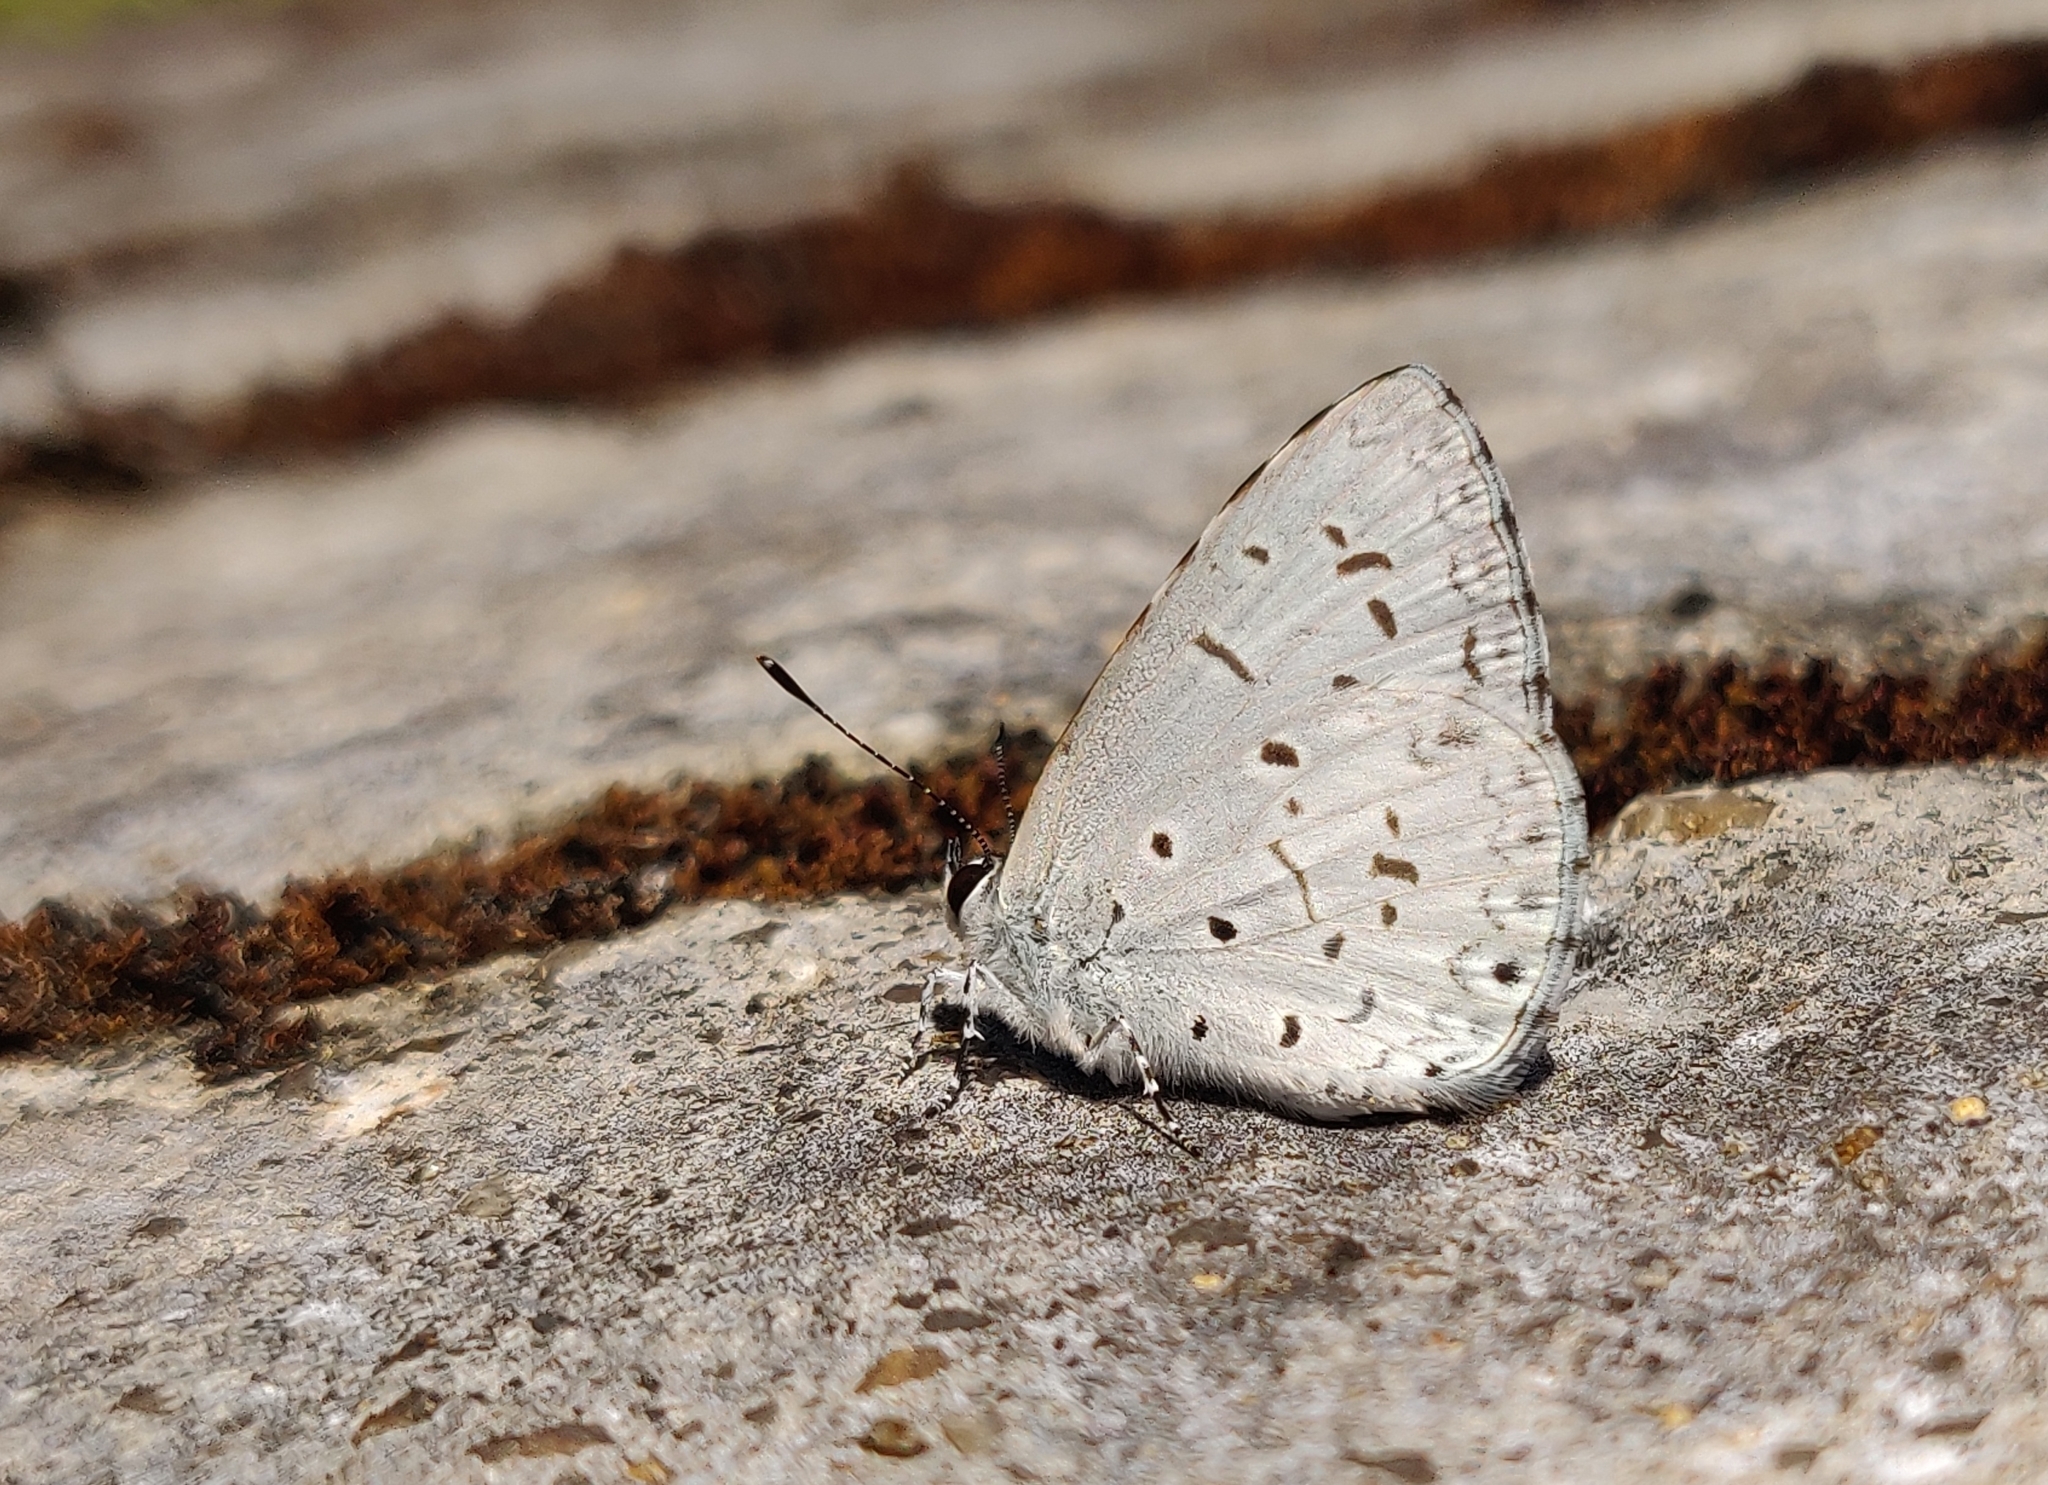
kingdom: Animalia
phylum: Arthropoda
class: Insecta
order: Lepidoptera
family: Lycaenidae
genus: Acytolepis
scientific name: Acytolepis puspa
